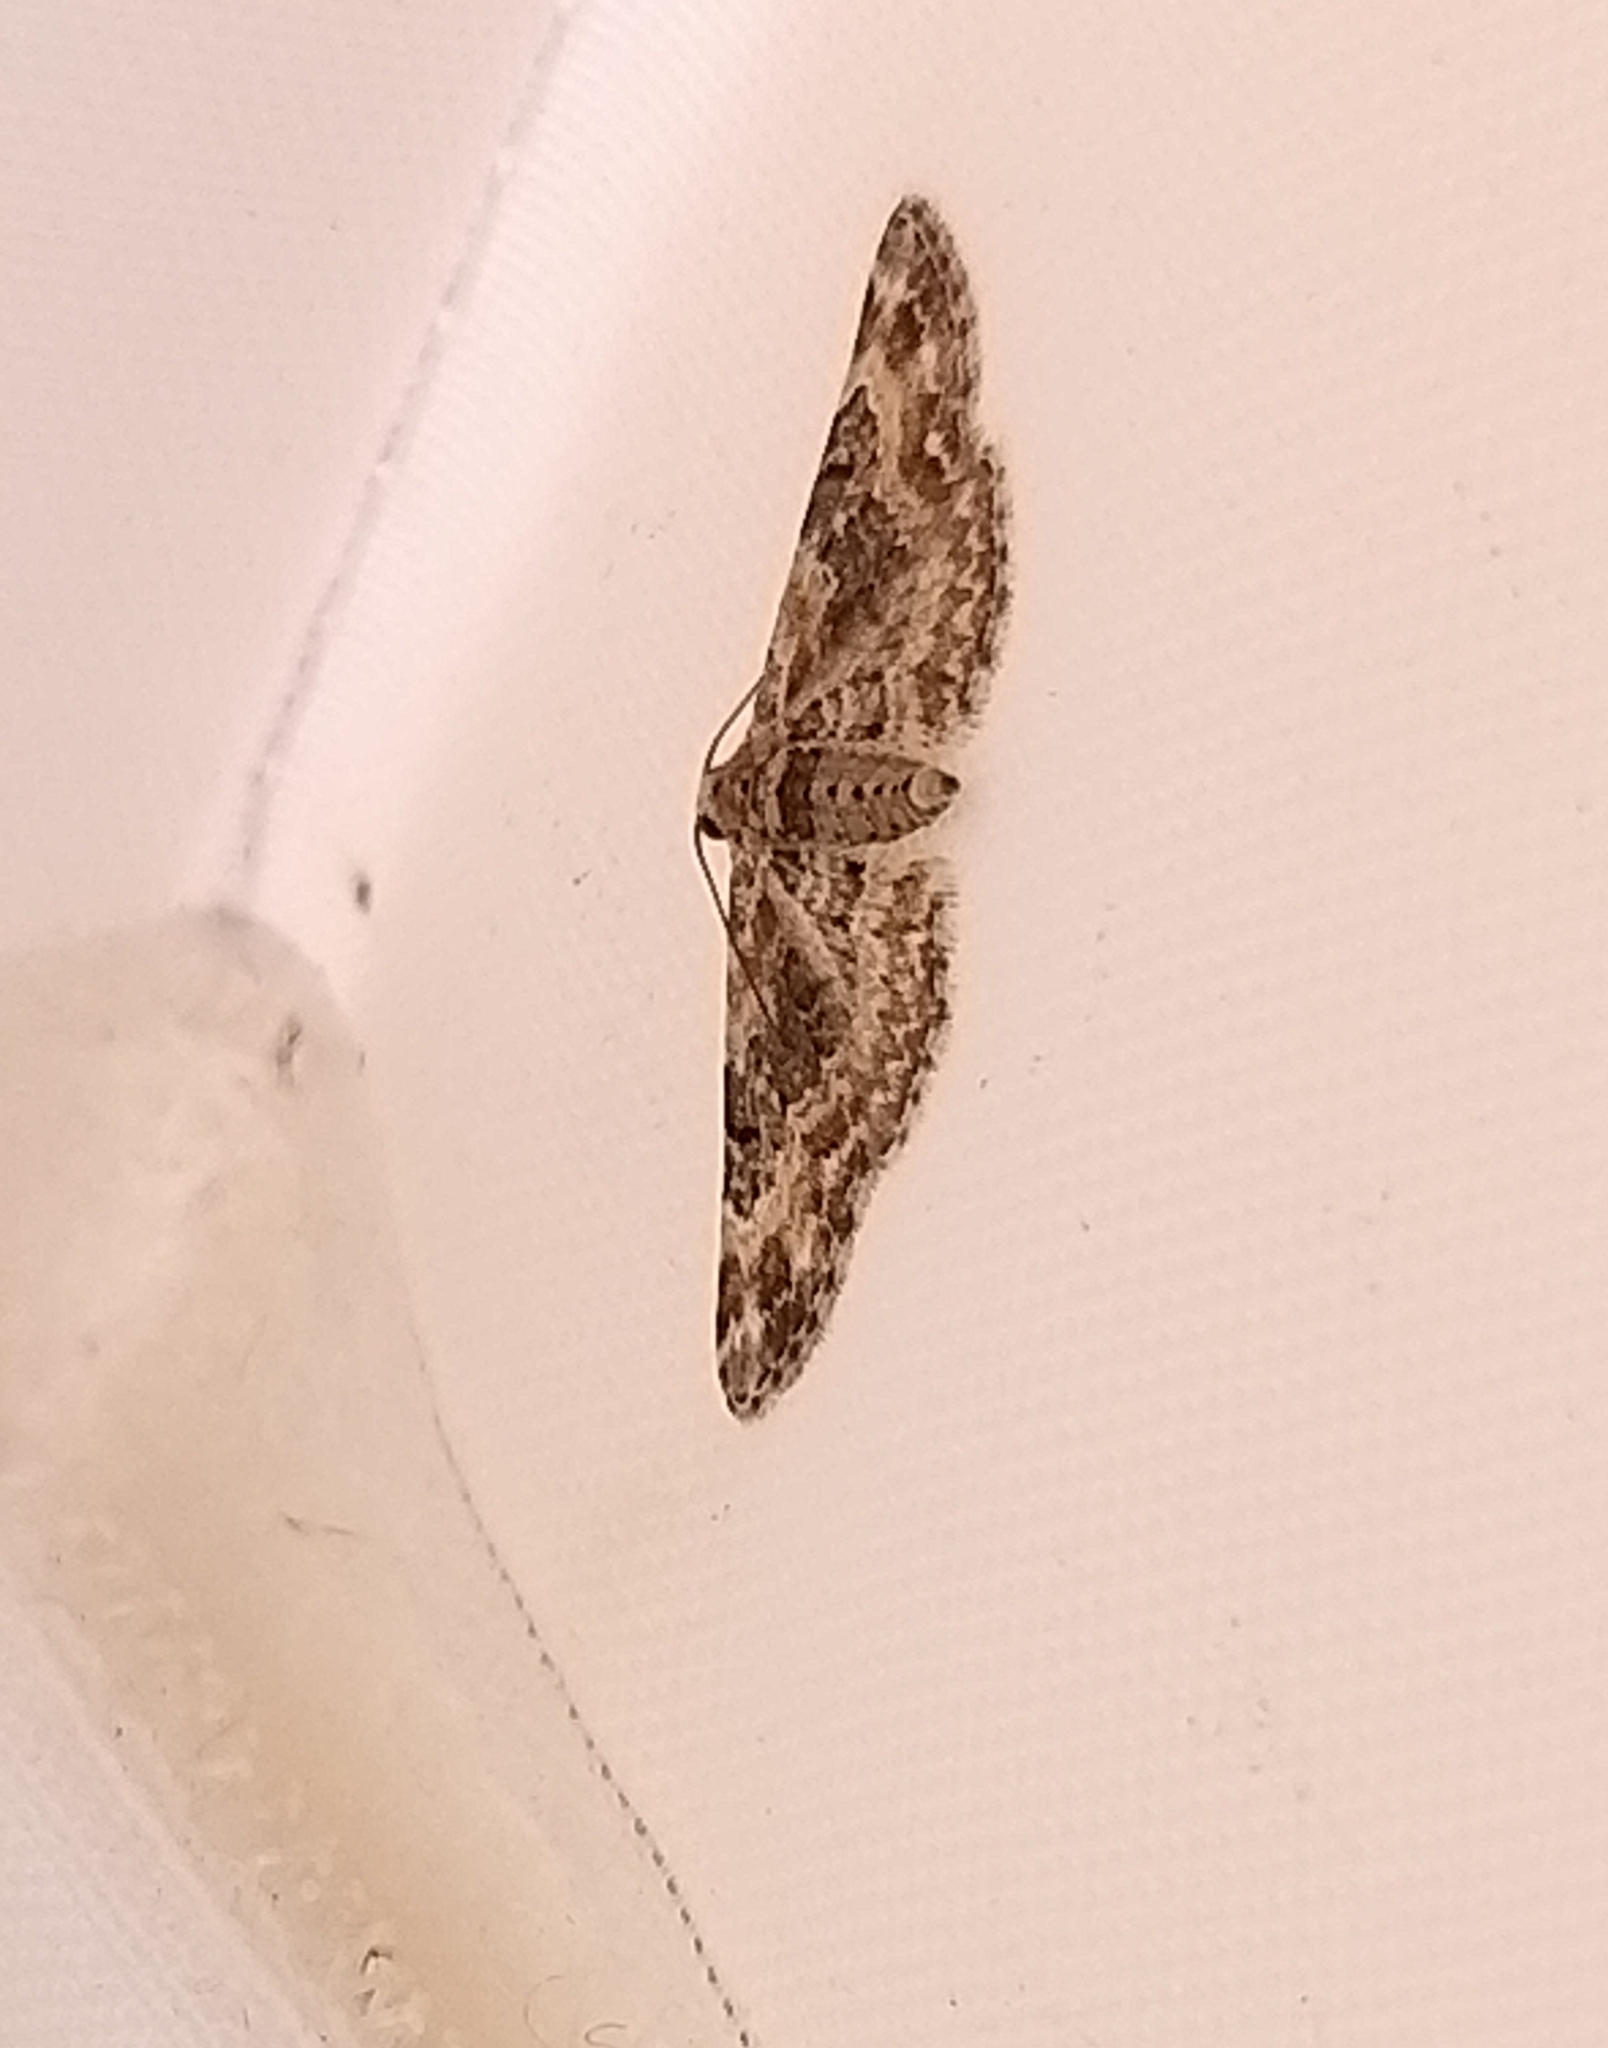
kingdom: Animalia
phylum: Arthropoda
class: Insecta
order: Lepidoptera
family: Geometridae
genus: Eupithecia
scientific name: Eupithecia nanata
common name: Narrow-winged pug
